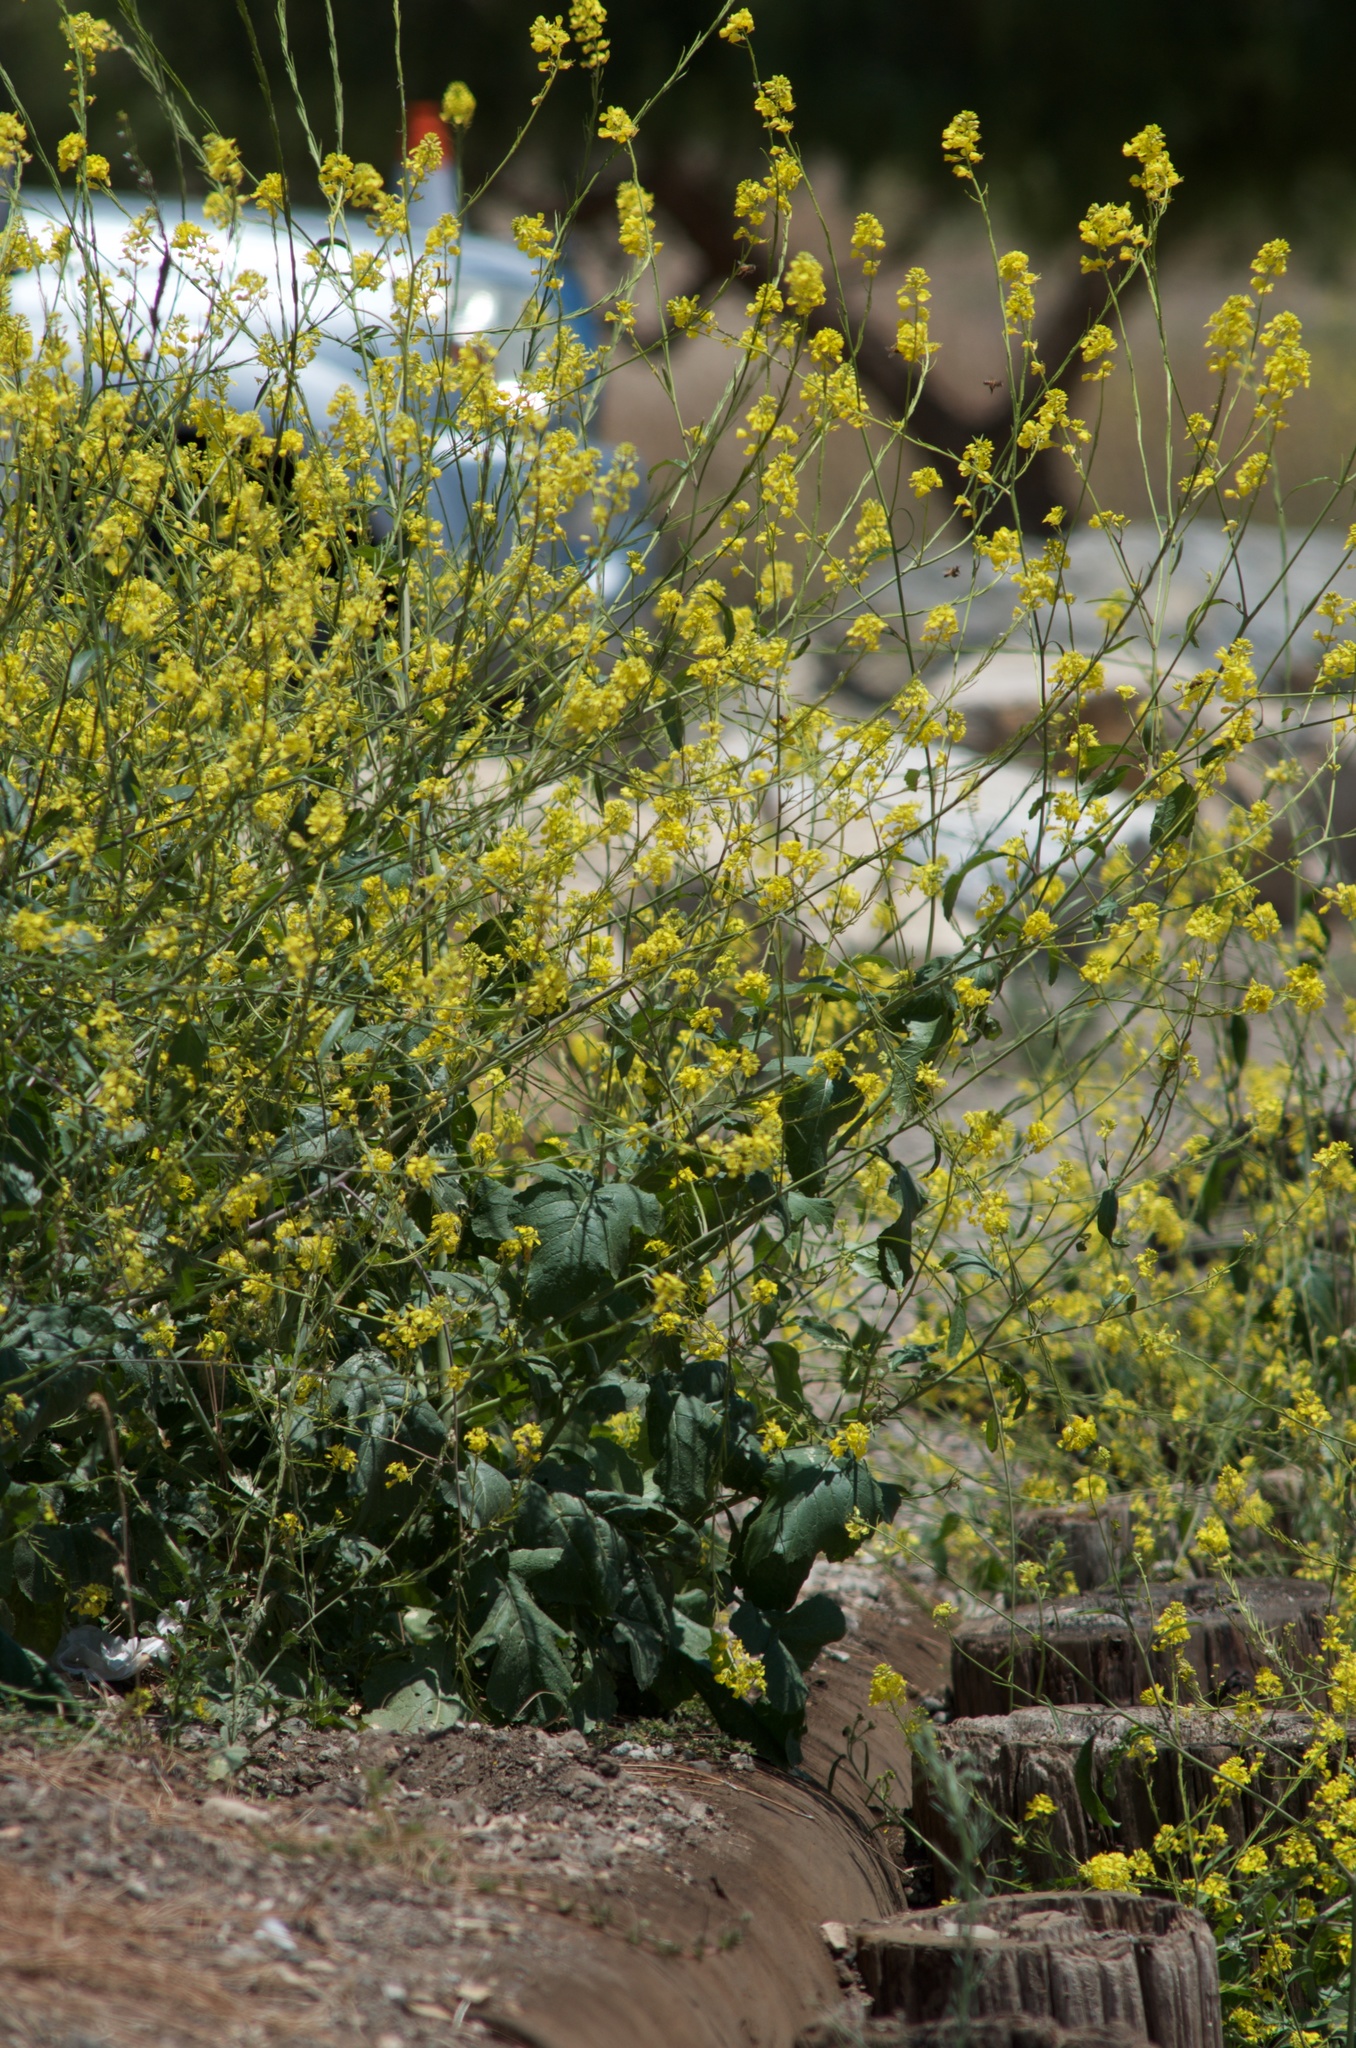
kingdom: Plantae
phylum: Tracheophyta
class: Magnoliopsida
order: Brassicales
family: Brassicaceae
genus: Hirschfeldia
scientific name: Hirschfeldia incana
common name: Hoary mustard
